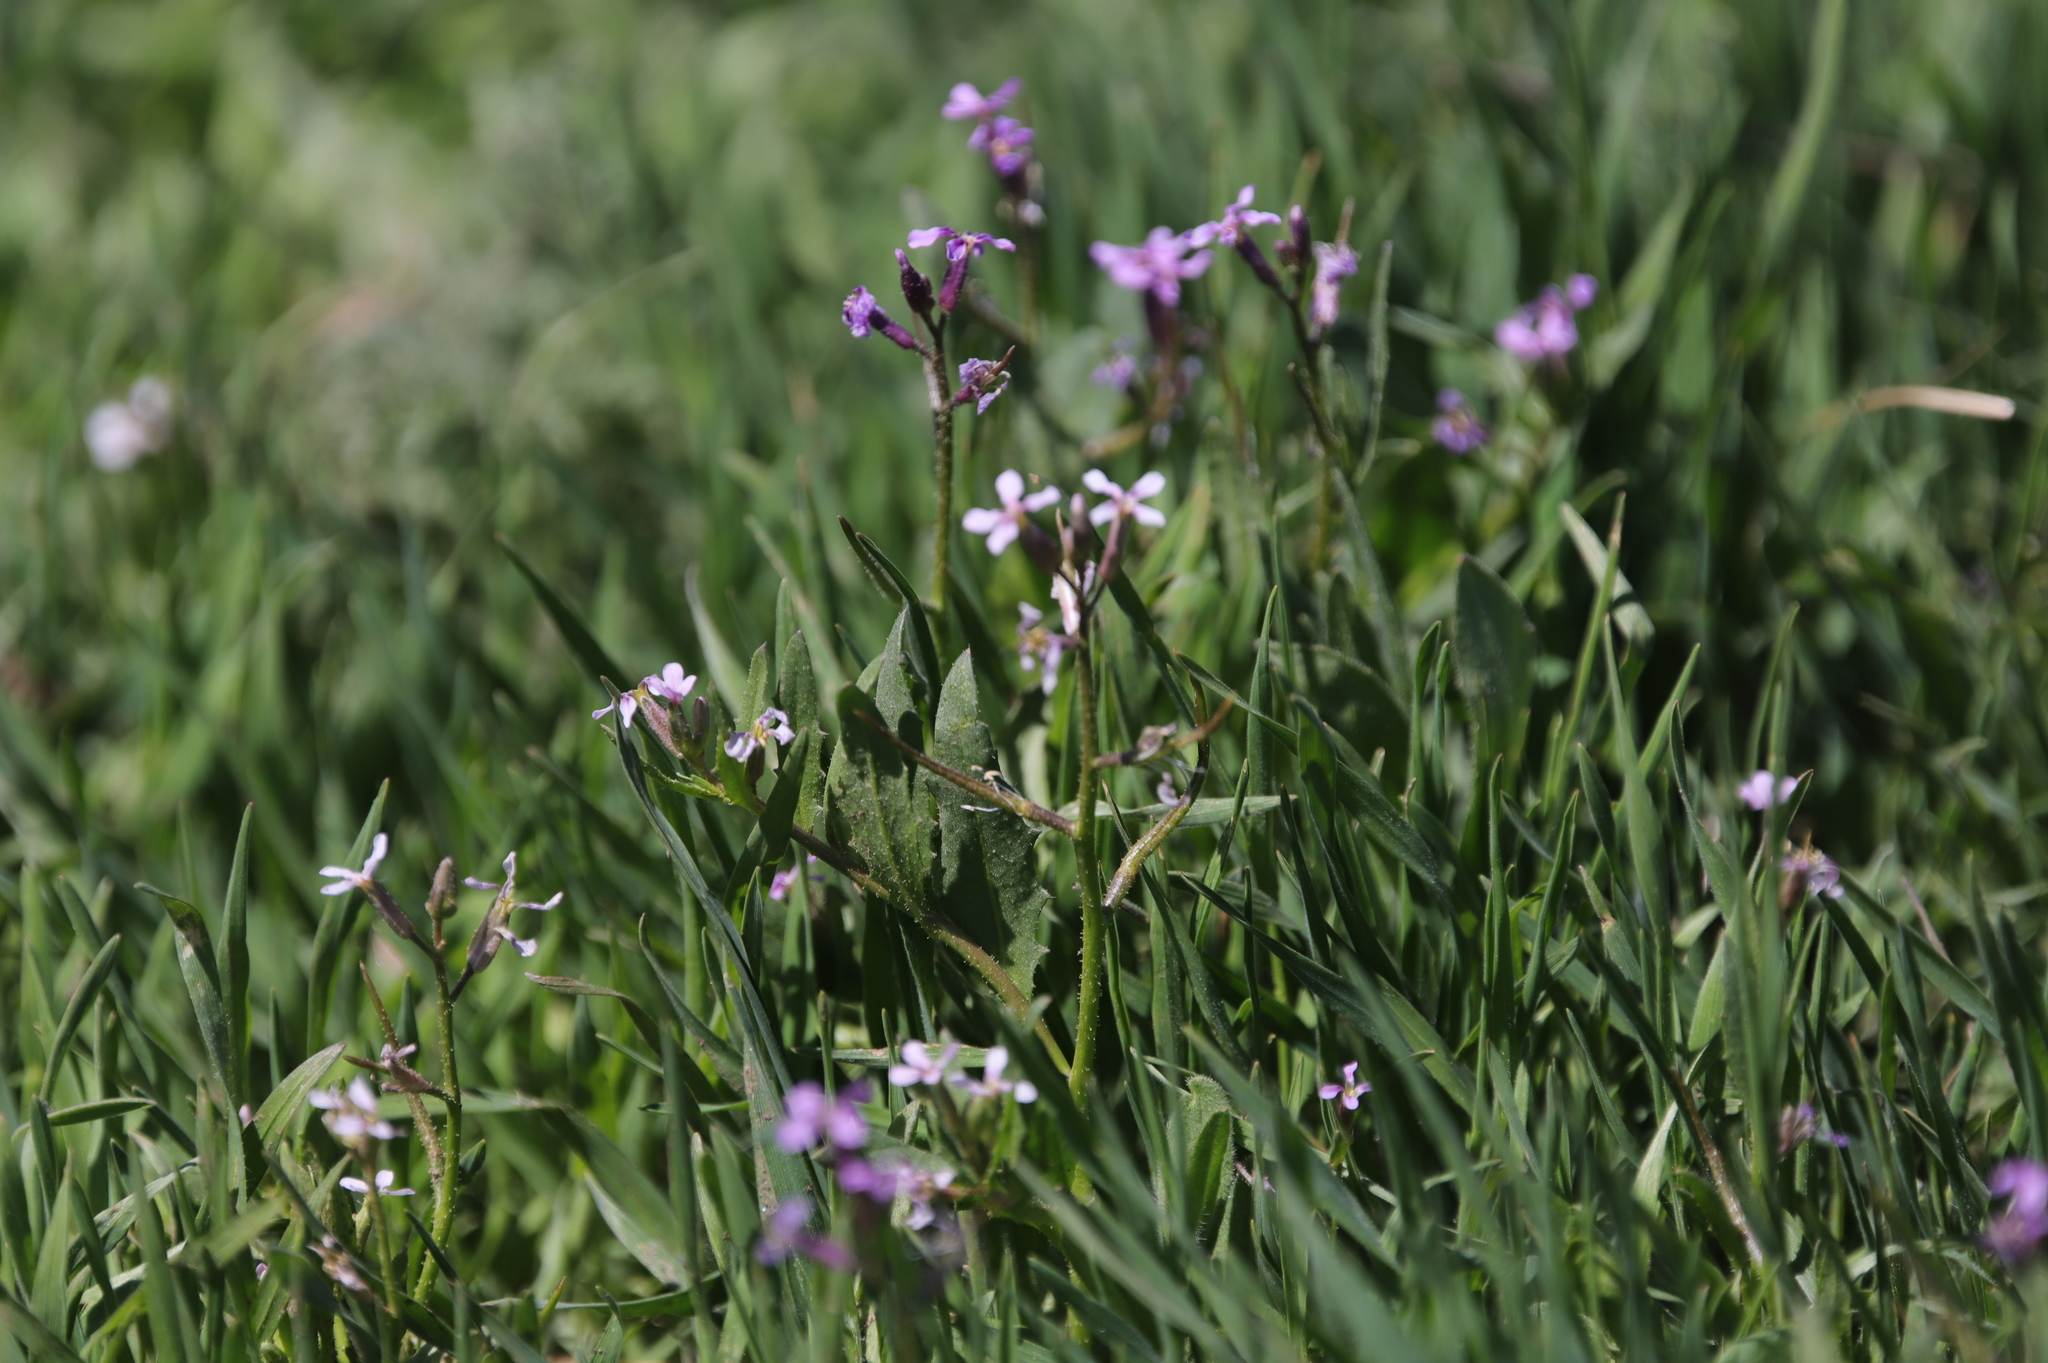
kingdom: Plantae
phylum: Tracheophyta
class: Magnoliopsida
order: Brassicales
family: Brassicaceae
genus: Chorispora
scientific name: Chorispora tenella
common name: Crossflower
